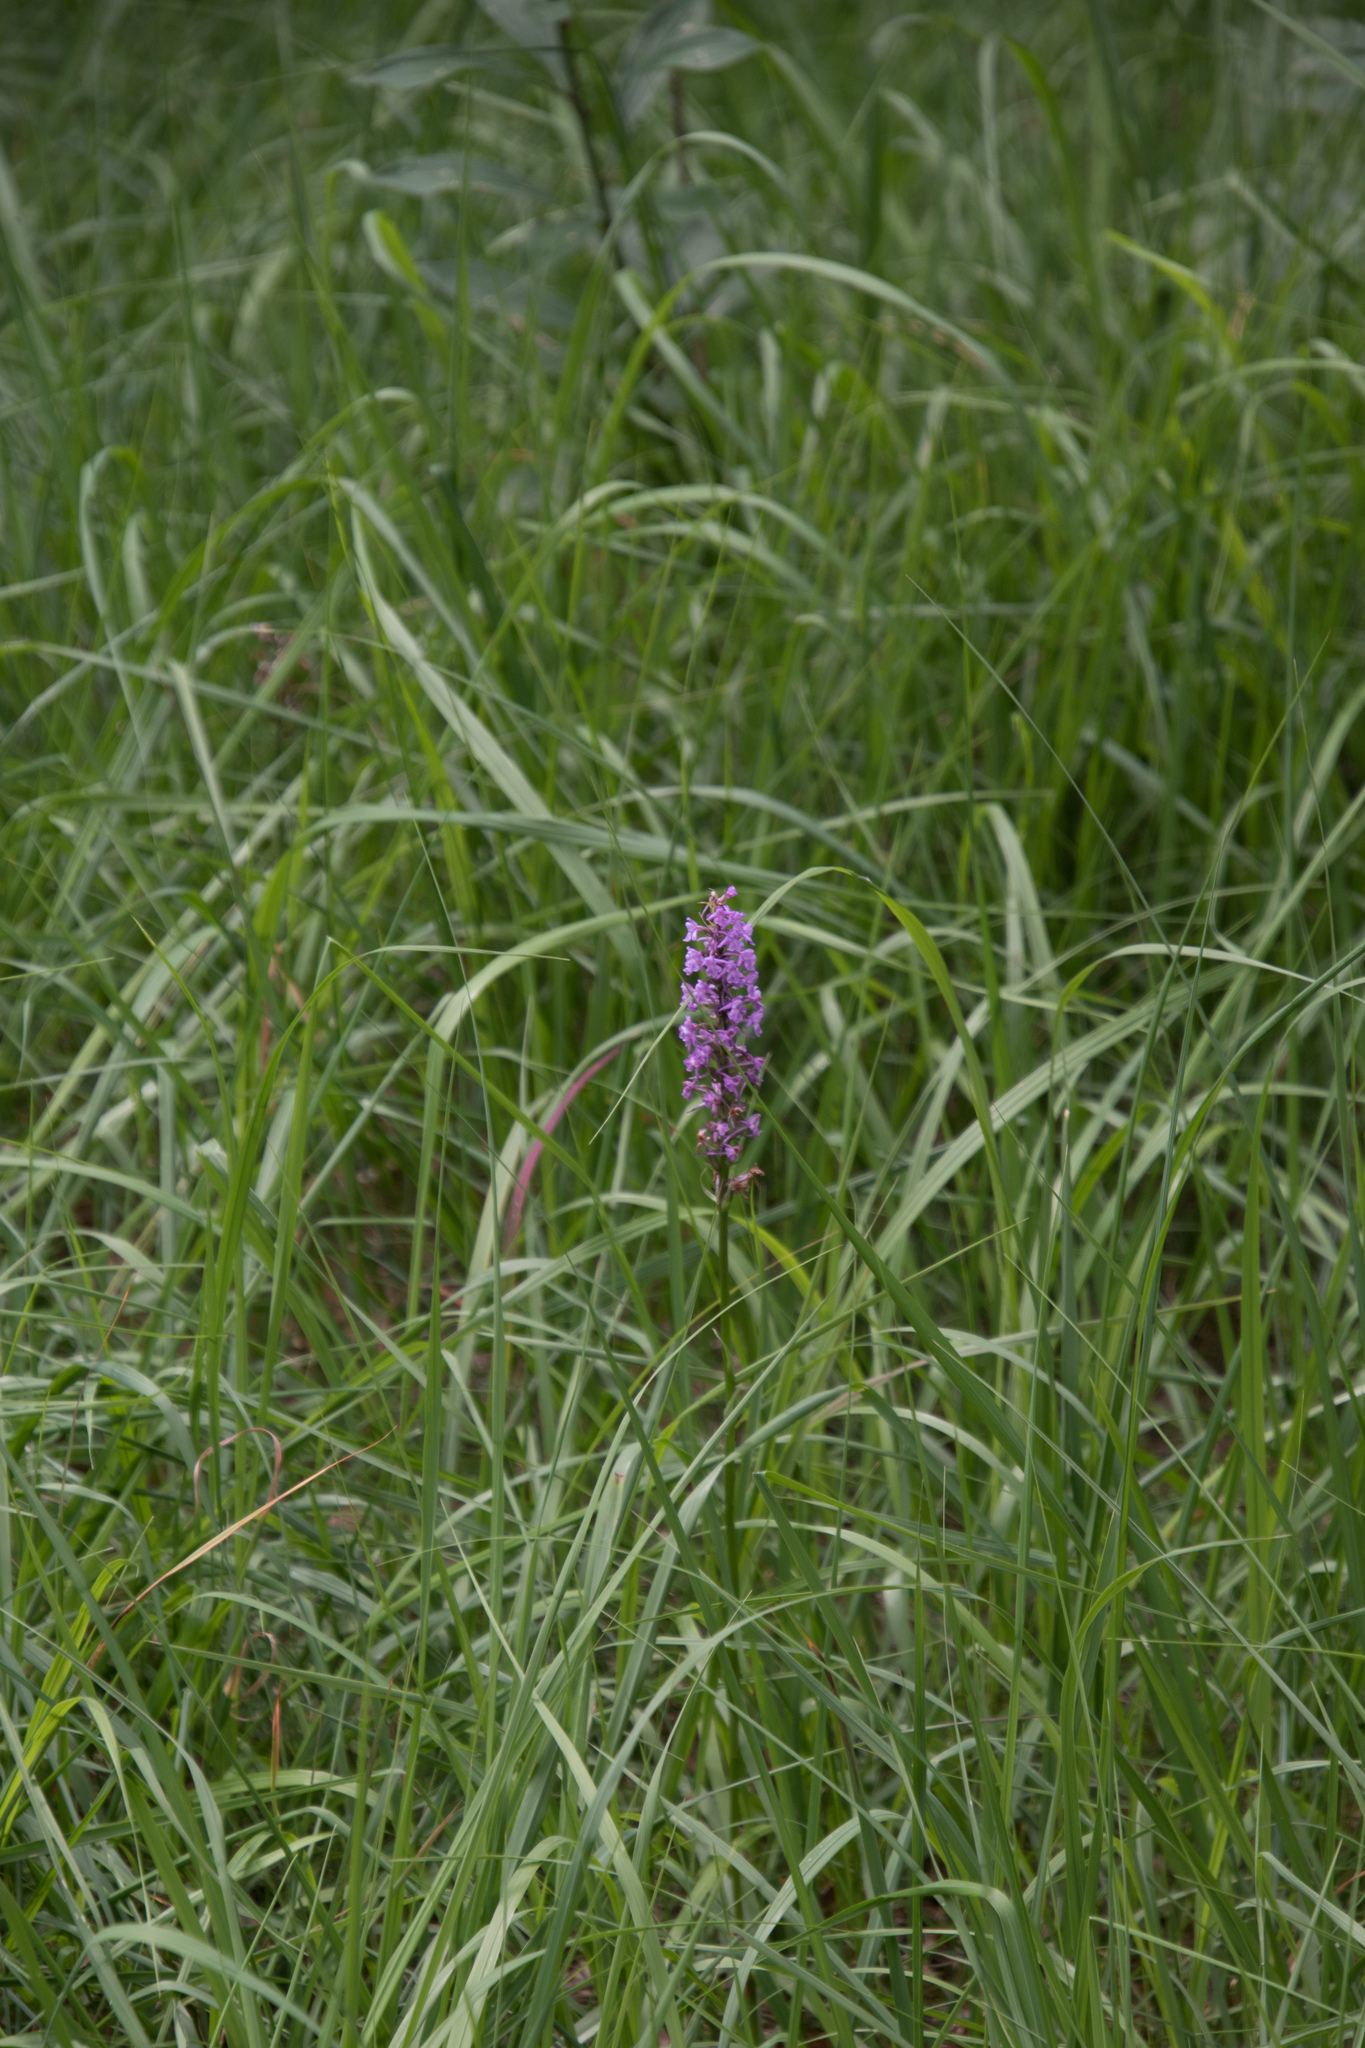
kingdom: Plantae
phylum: Tracheophyta
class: Liliopsida
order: Asparagales
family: Orchidaceae
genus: Gymnadenia
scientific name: Gymnadenia conopsea
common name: Fragrant orchid
